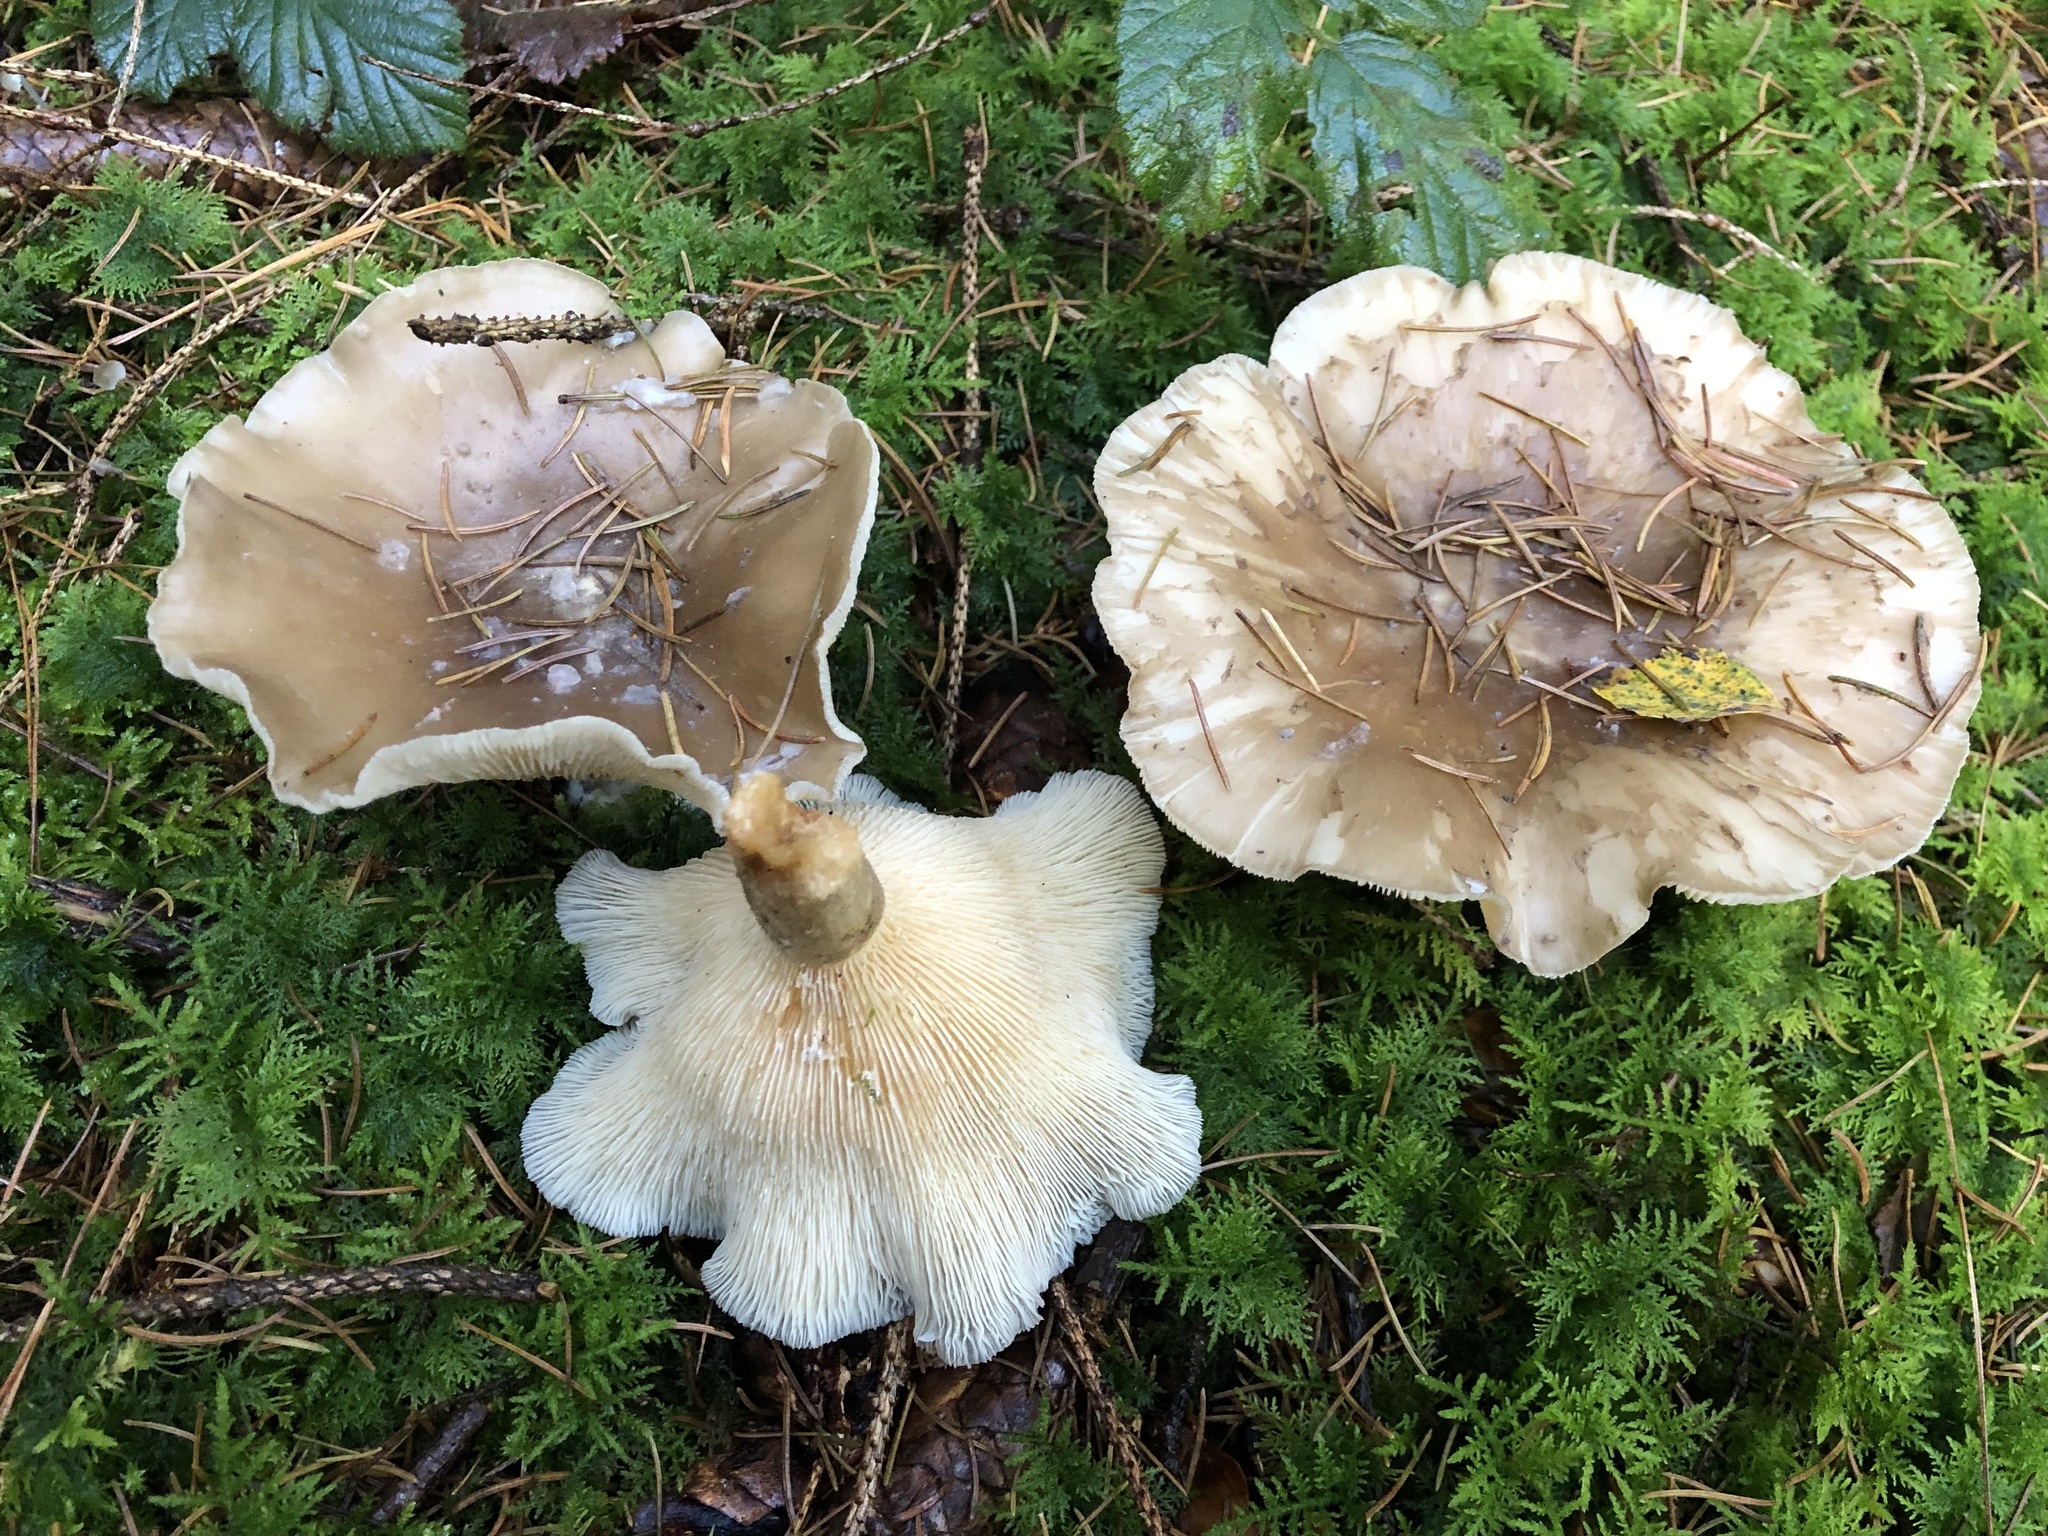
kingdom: Fungi
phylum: Basidiomycota
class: Agaricomycetes
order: Agaricales
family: Tricholomataceae
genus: Clitocybe
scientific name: Clitocybe nebularis
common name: Clouded agaric
